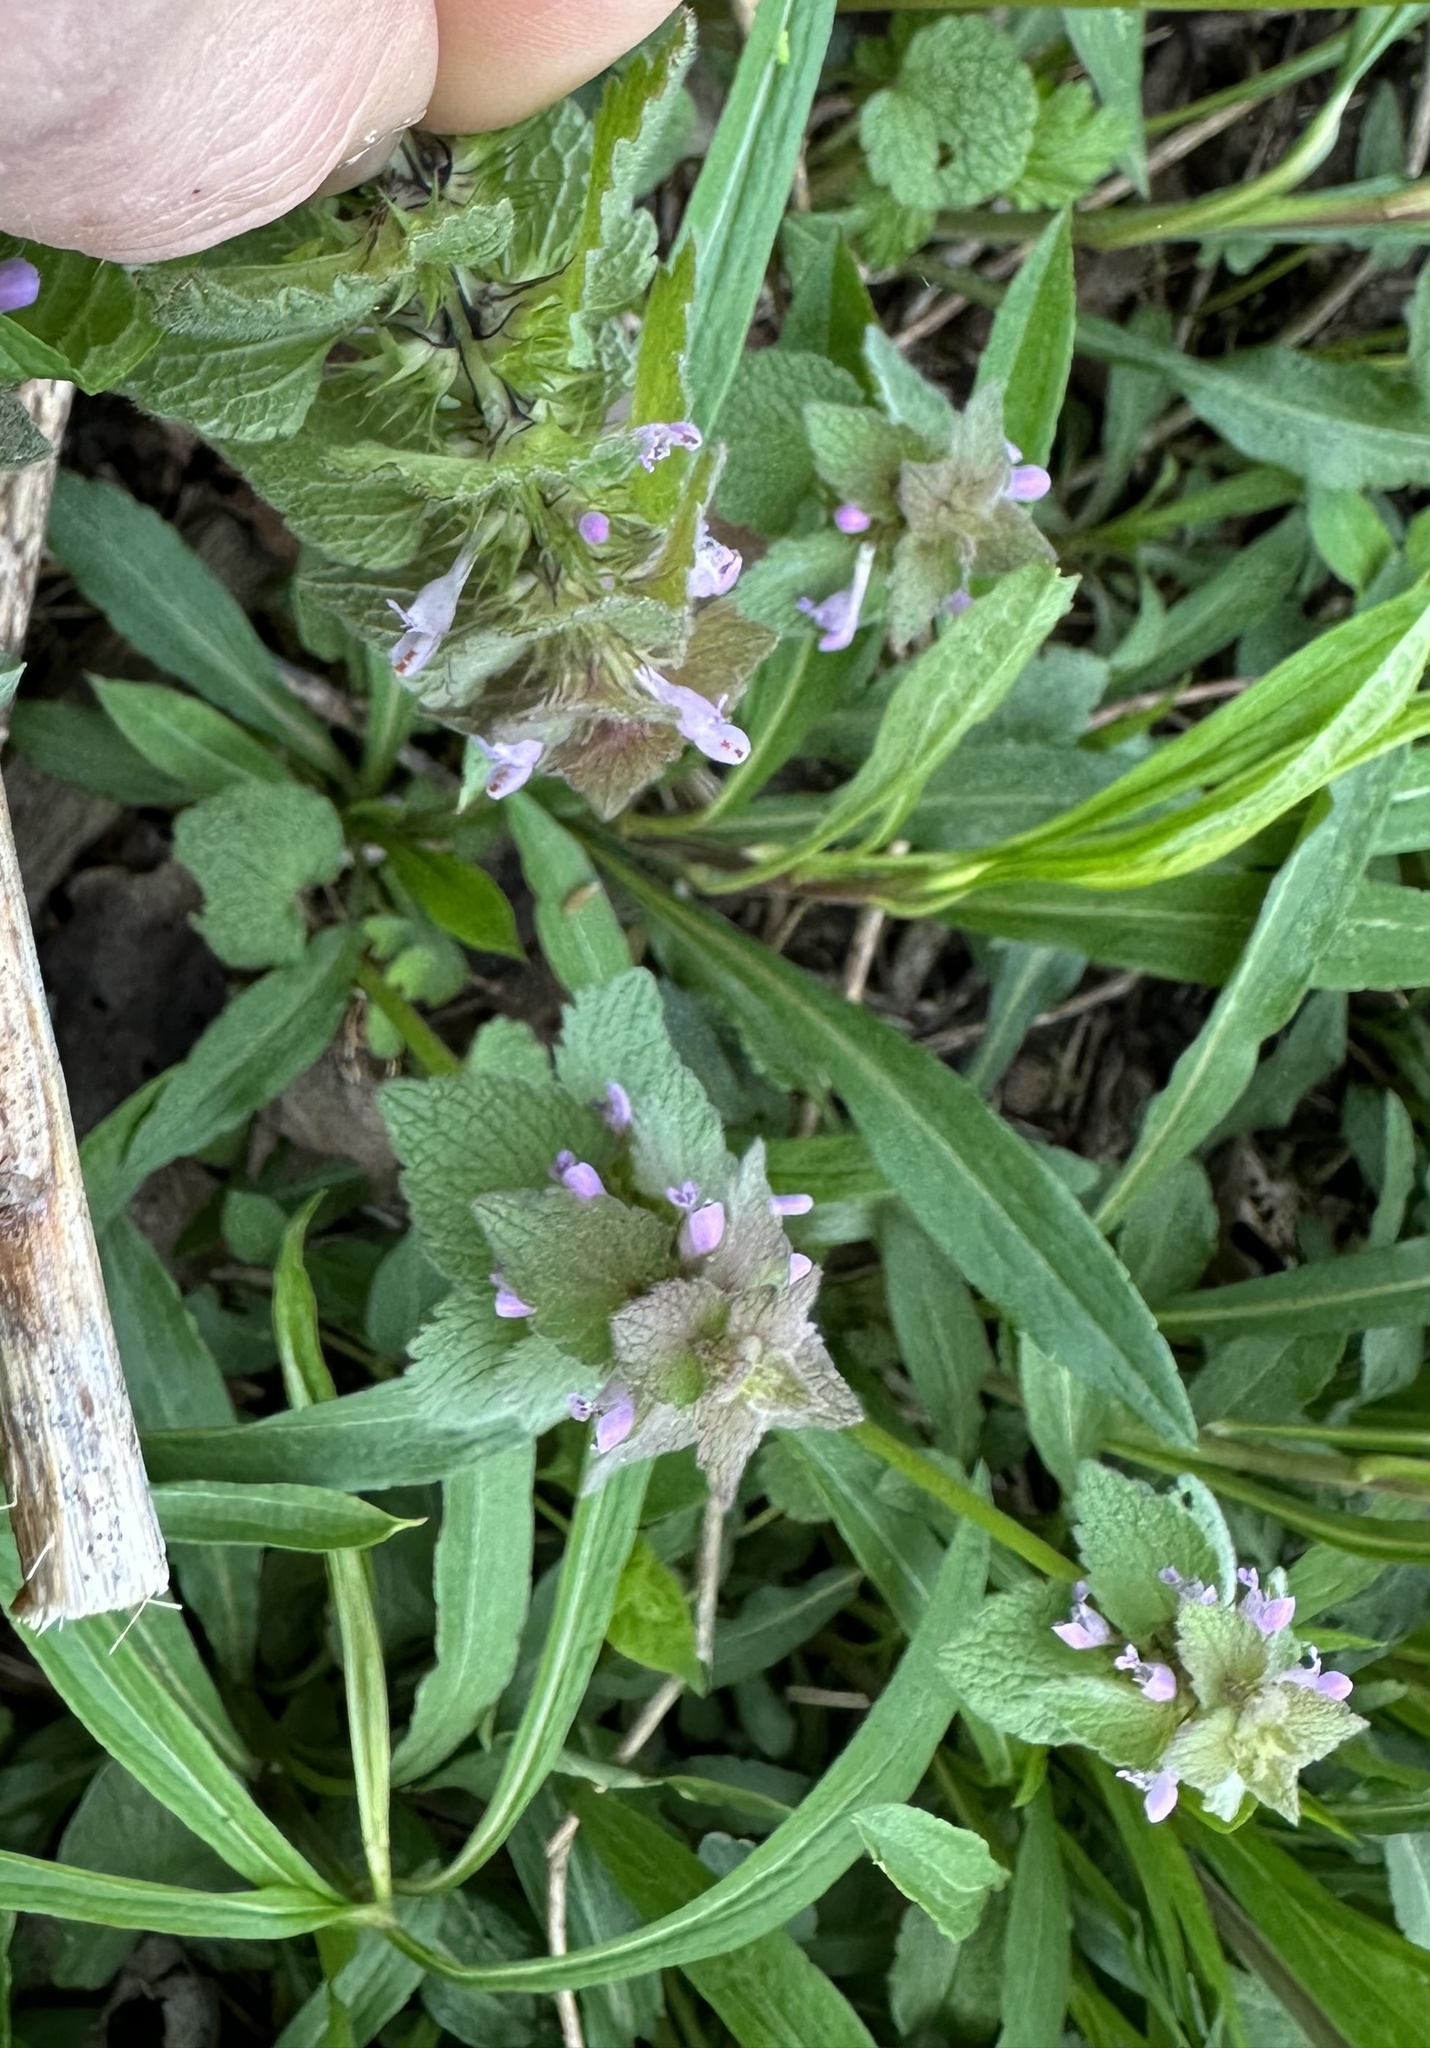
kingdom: Plantae
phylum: Tracheophyta
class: Magnoliopsida
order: Lamiales
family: Lamiaceae
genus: Lamium
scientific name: Lamium purpureum
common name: Red dead-nettle
